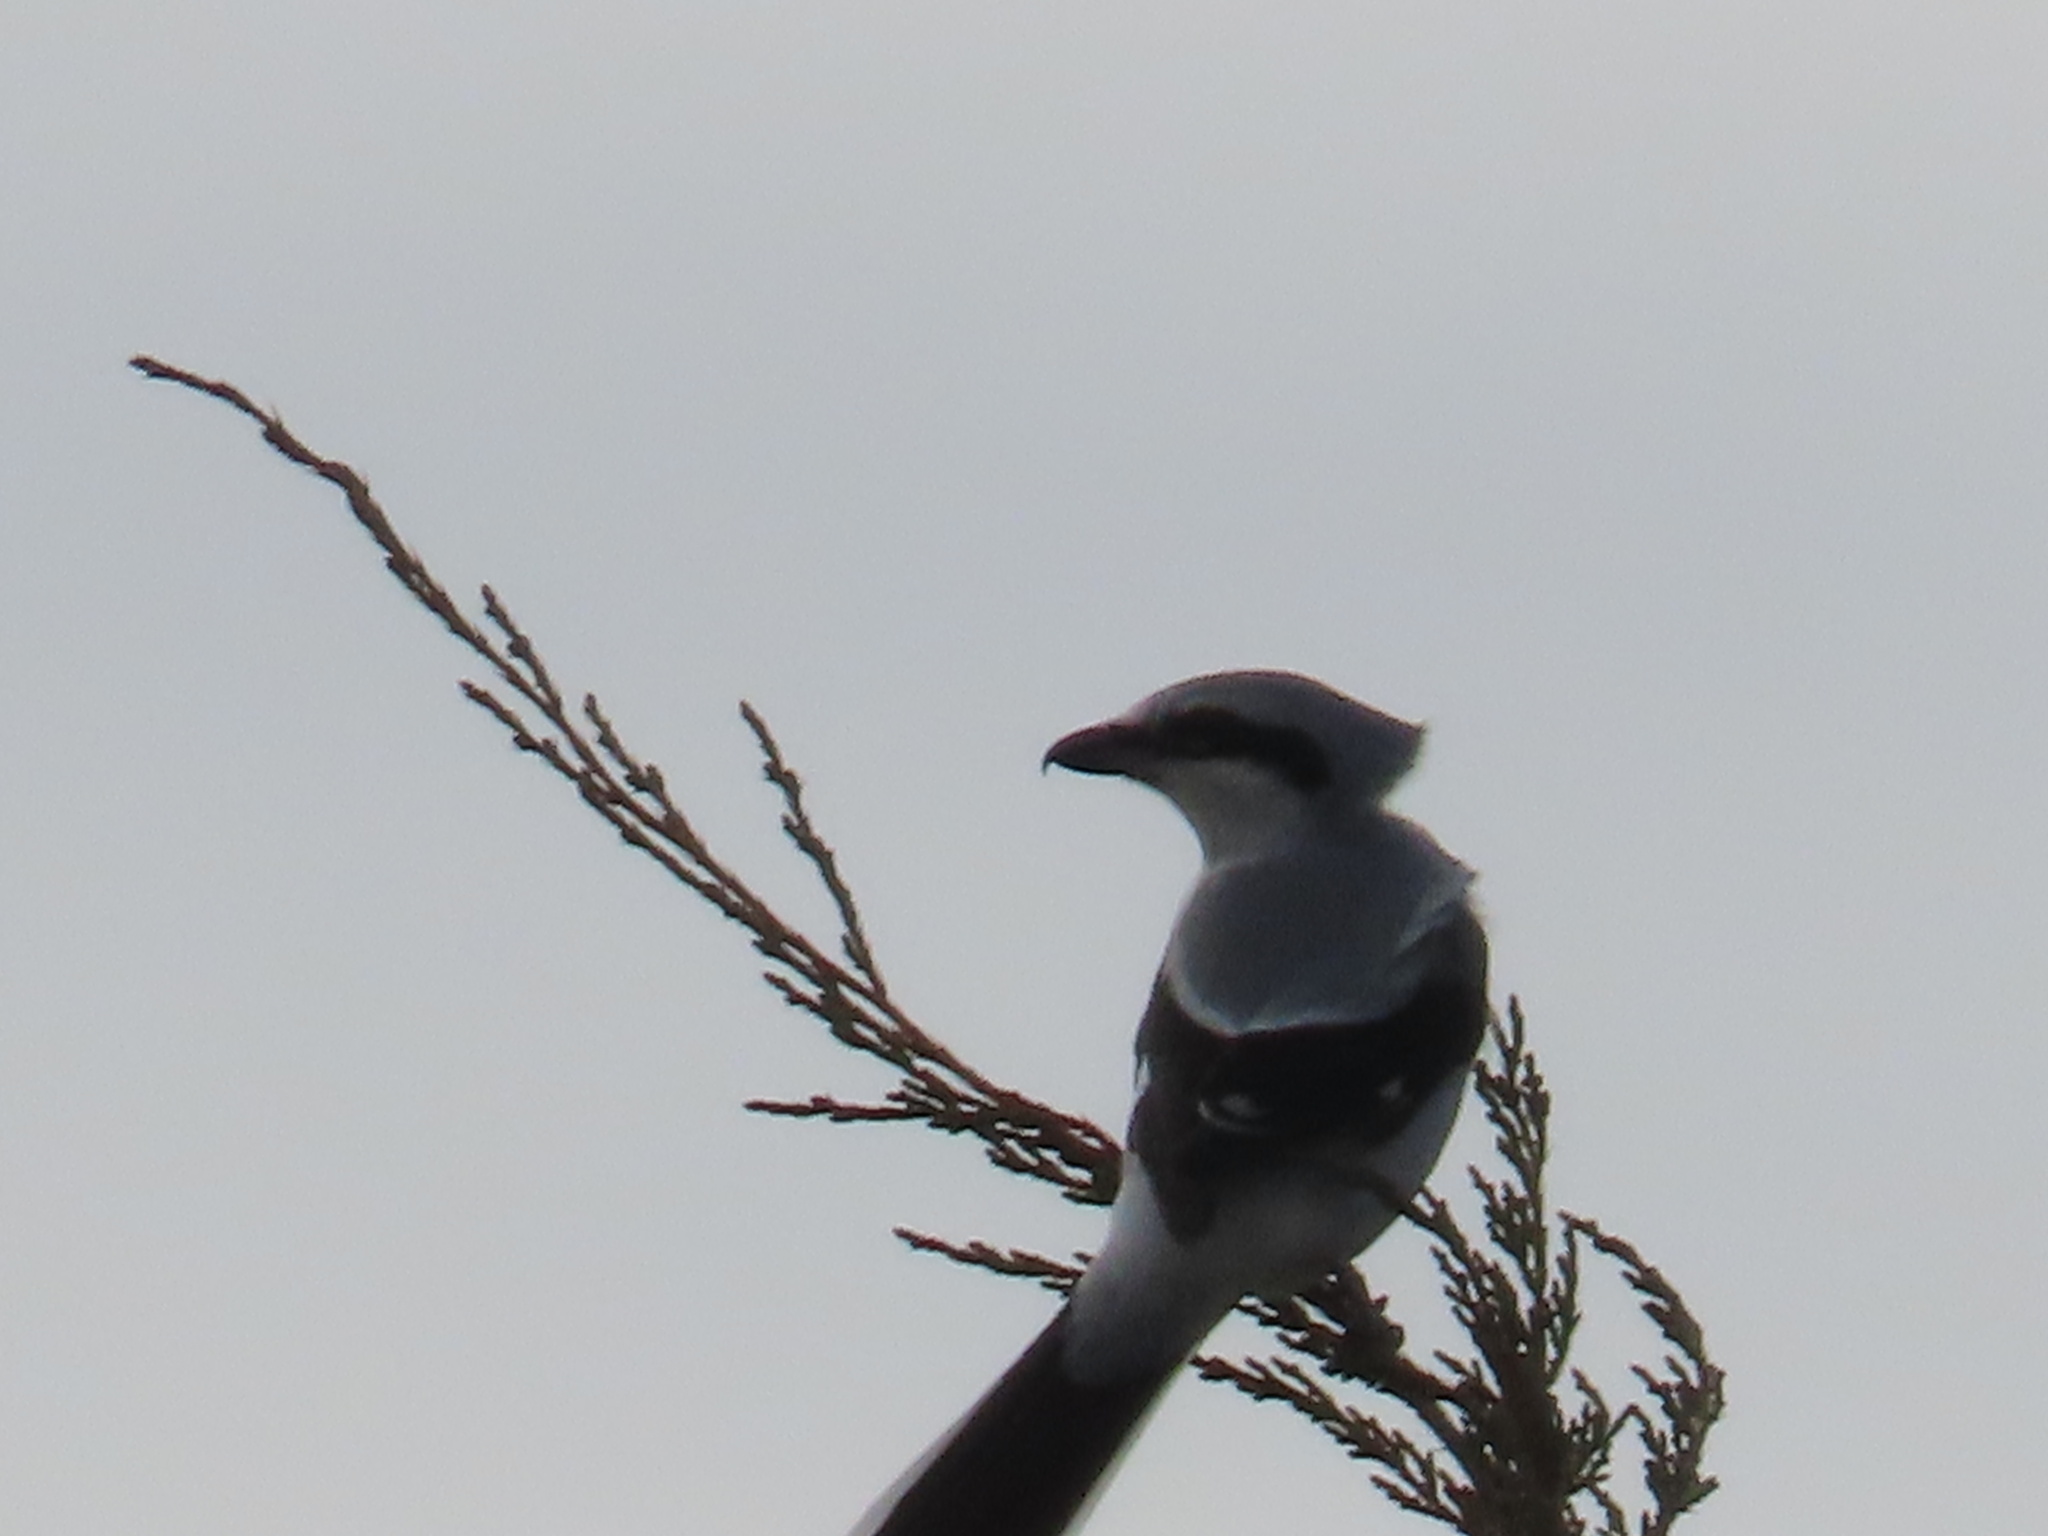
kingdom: Animalia
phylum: Chordata
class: Aves
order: Passeriformes
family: Laniidae
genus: Lanius
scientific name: Lanius ludovicianus
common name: Loggerhead shrike
